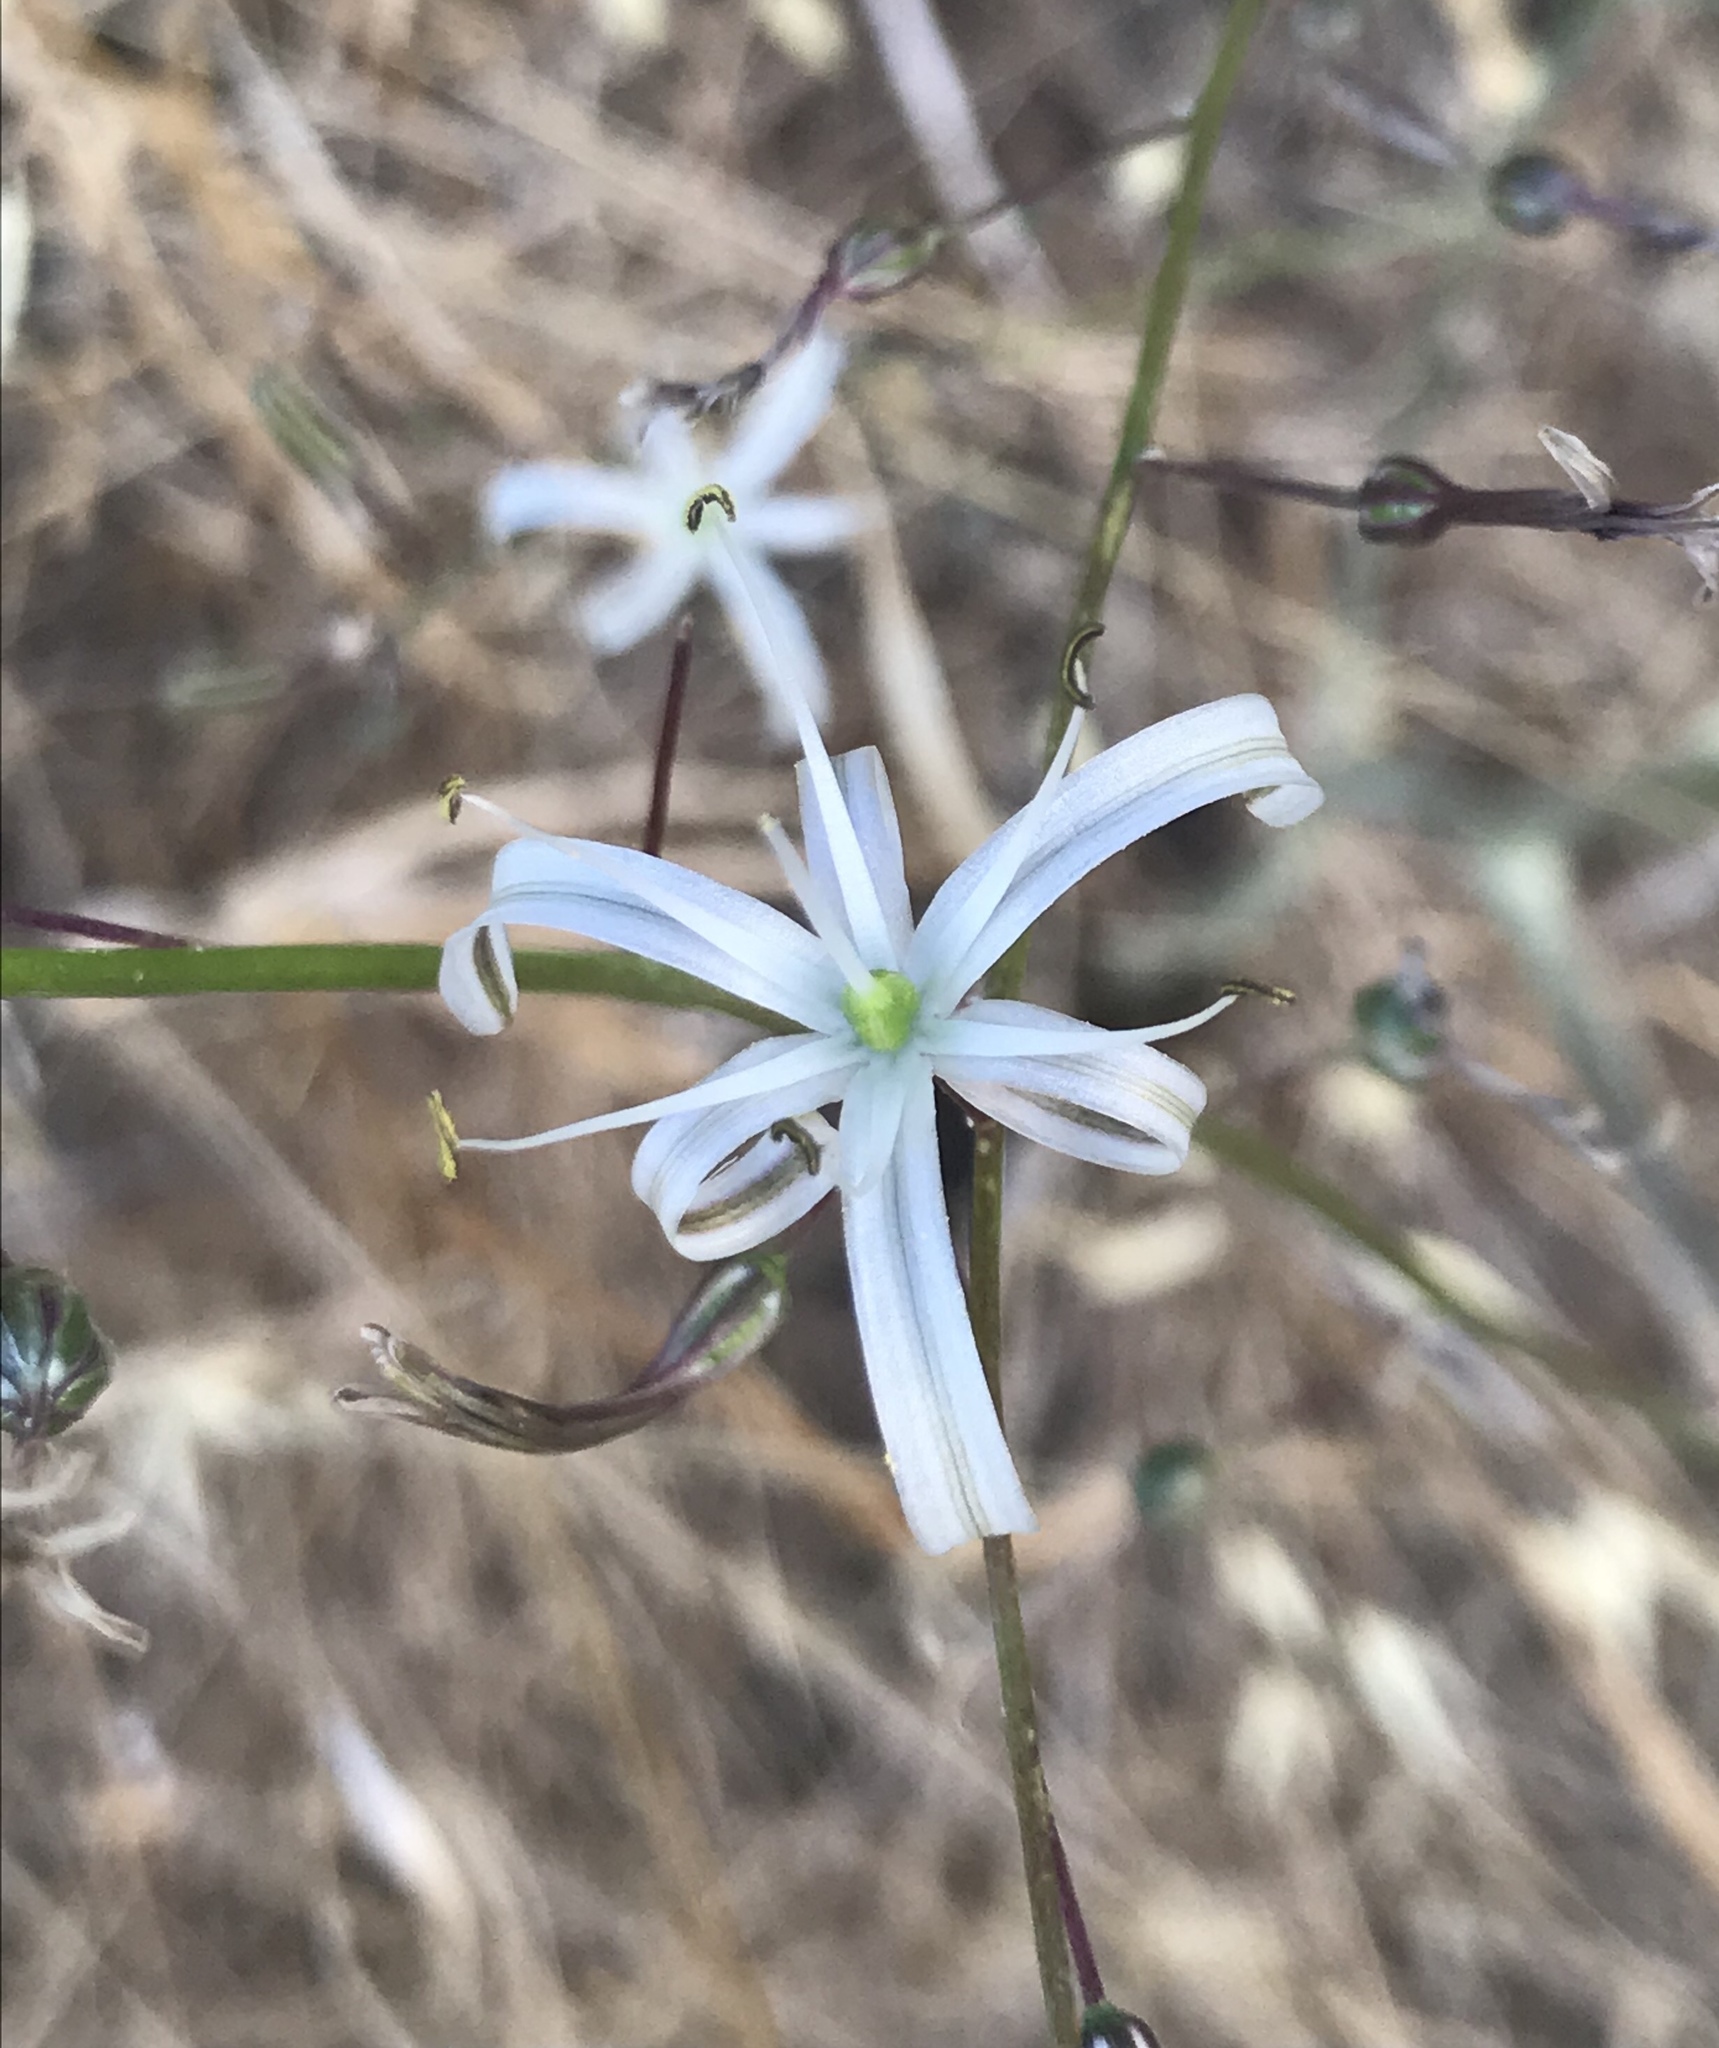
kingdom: Plantae
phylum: Tracheophyta
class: Liliopsida
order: Asparagales
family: Asparagaceae
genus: Chlorogalum
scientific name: Chlorogalum pomeridianum
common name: Amole
